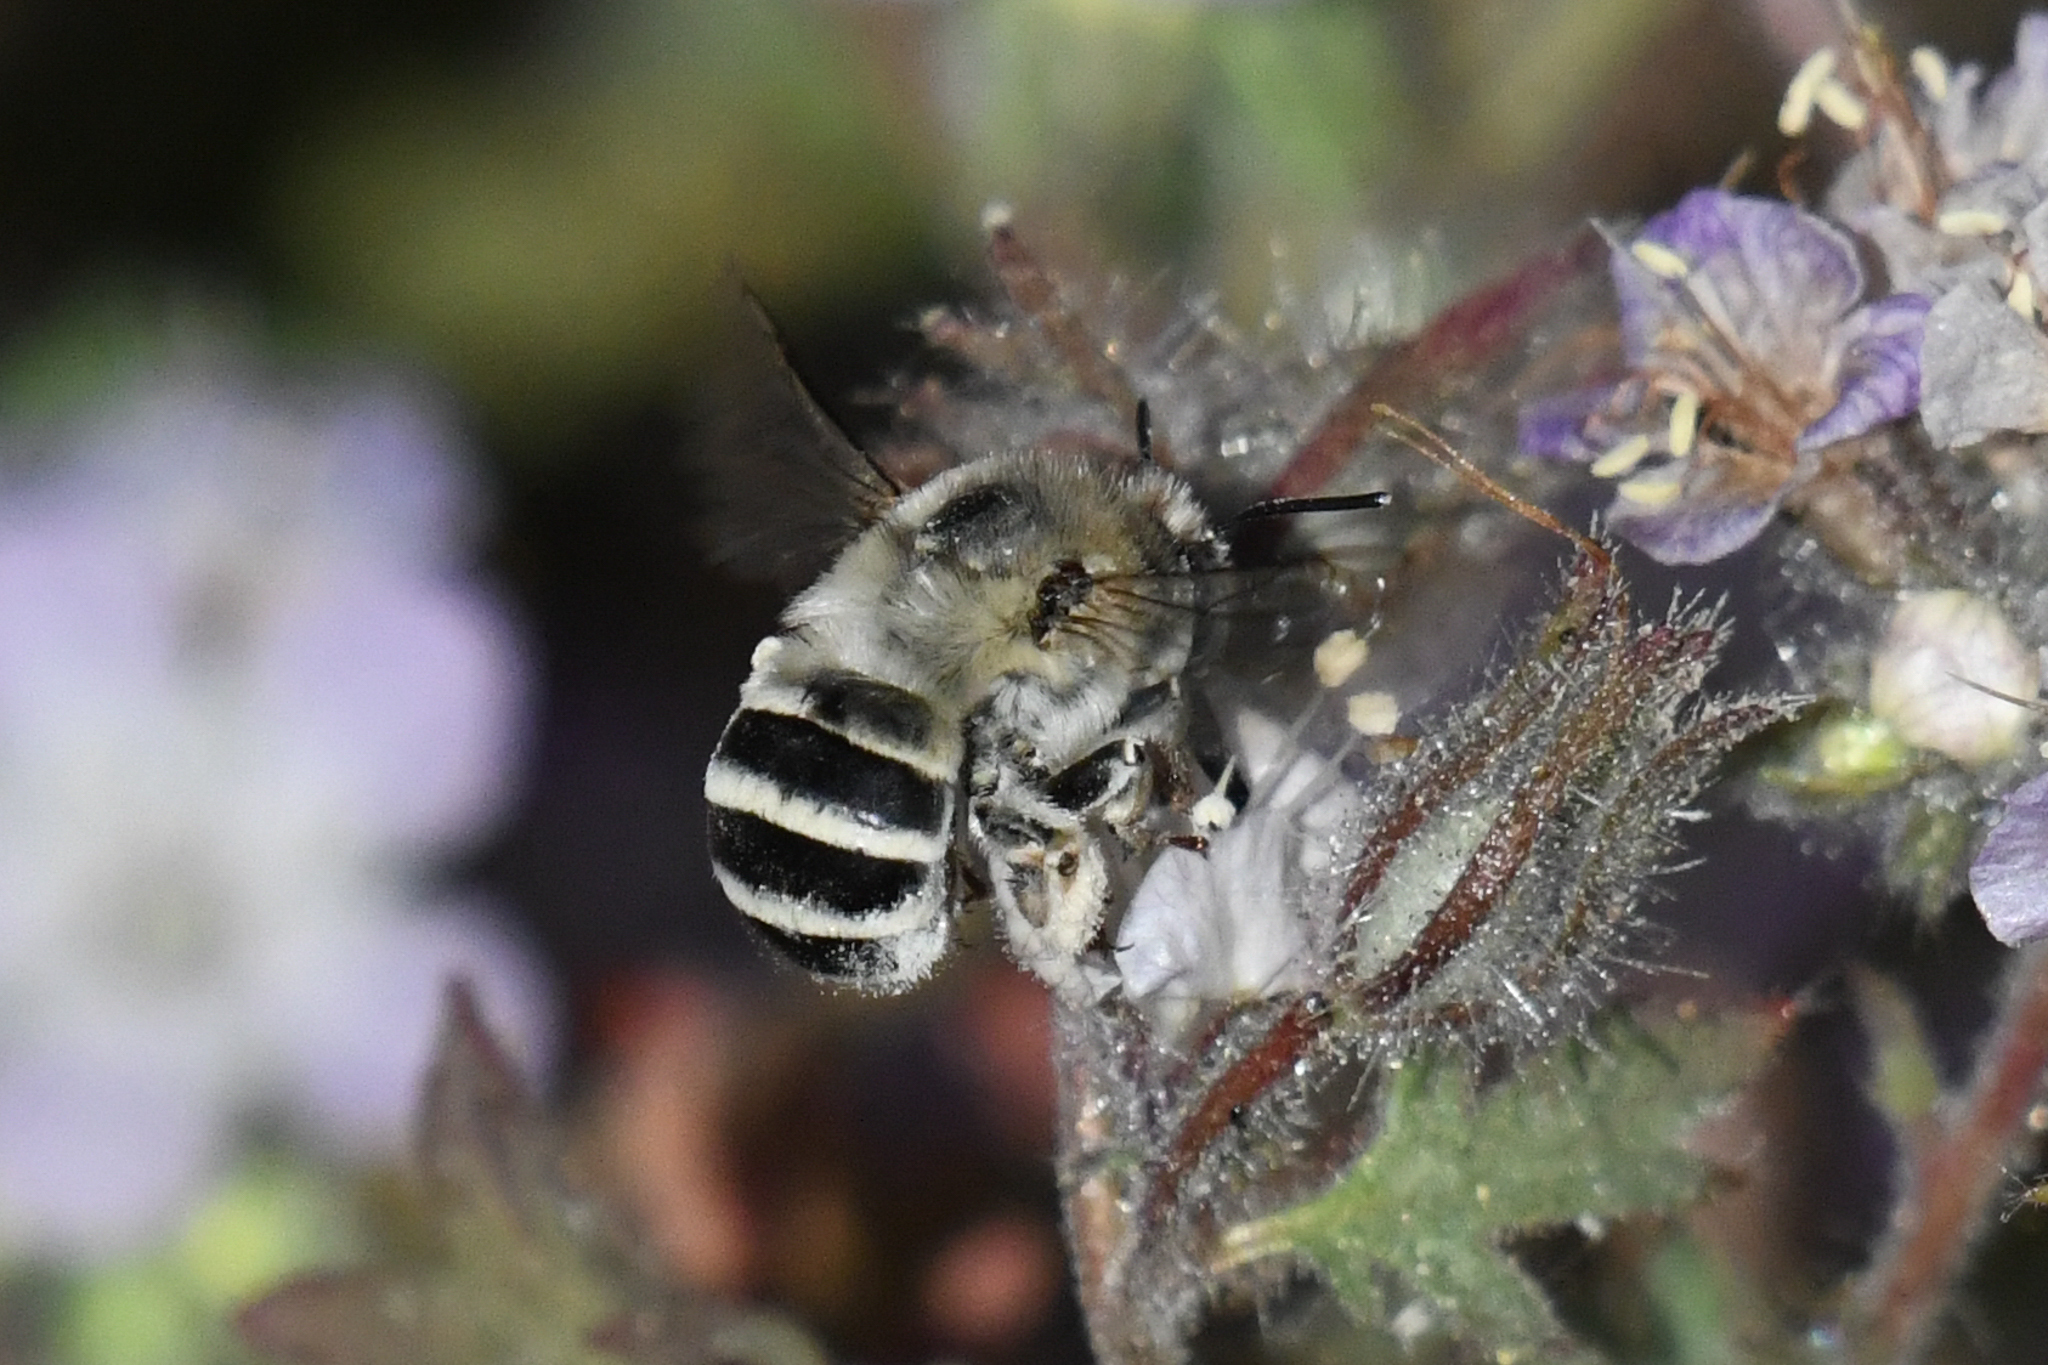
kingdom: Animalia
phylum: Arthropoda
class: Insecta
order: Hymenoptera
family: Apidae
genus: Anthophora
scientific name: Anthophora urbana
